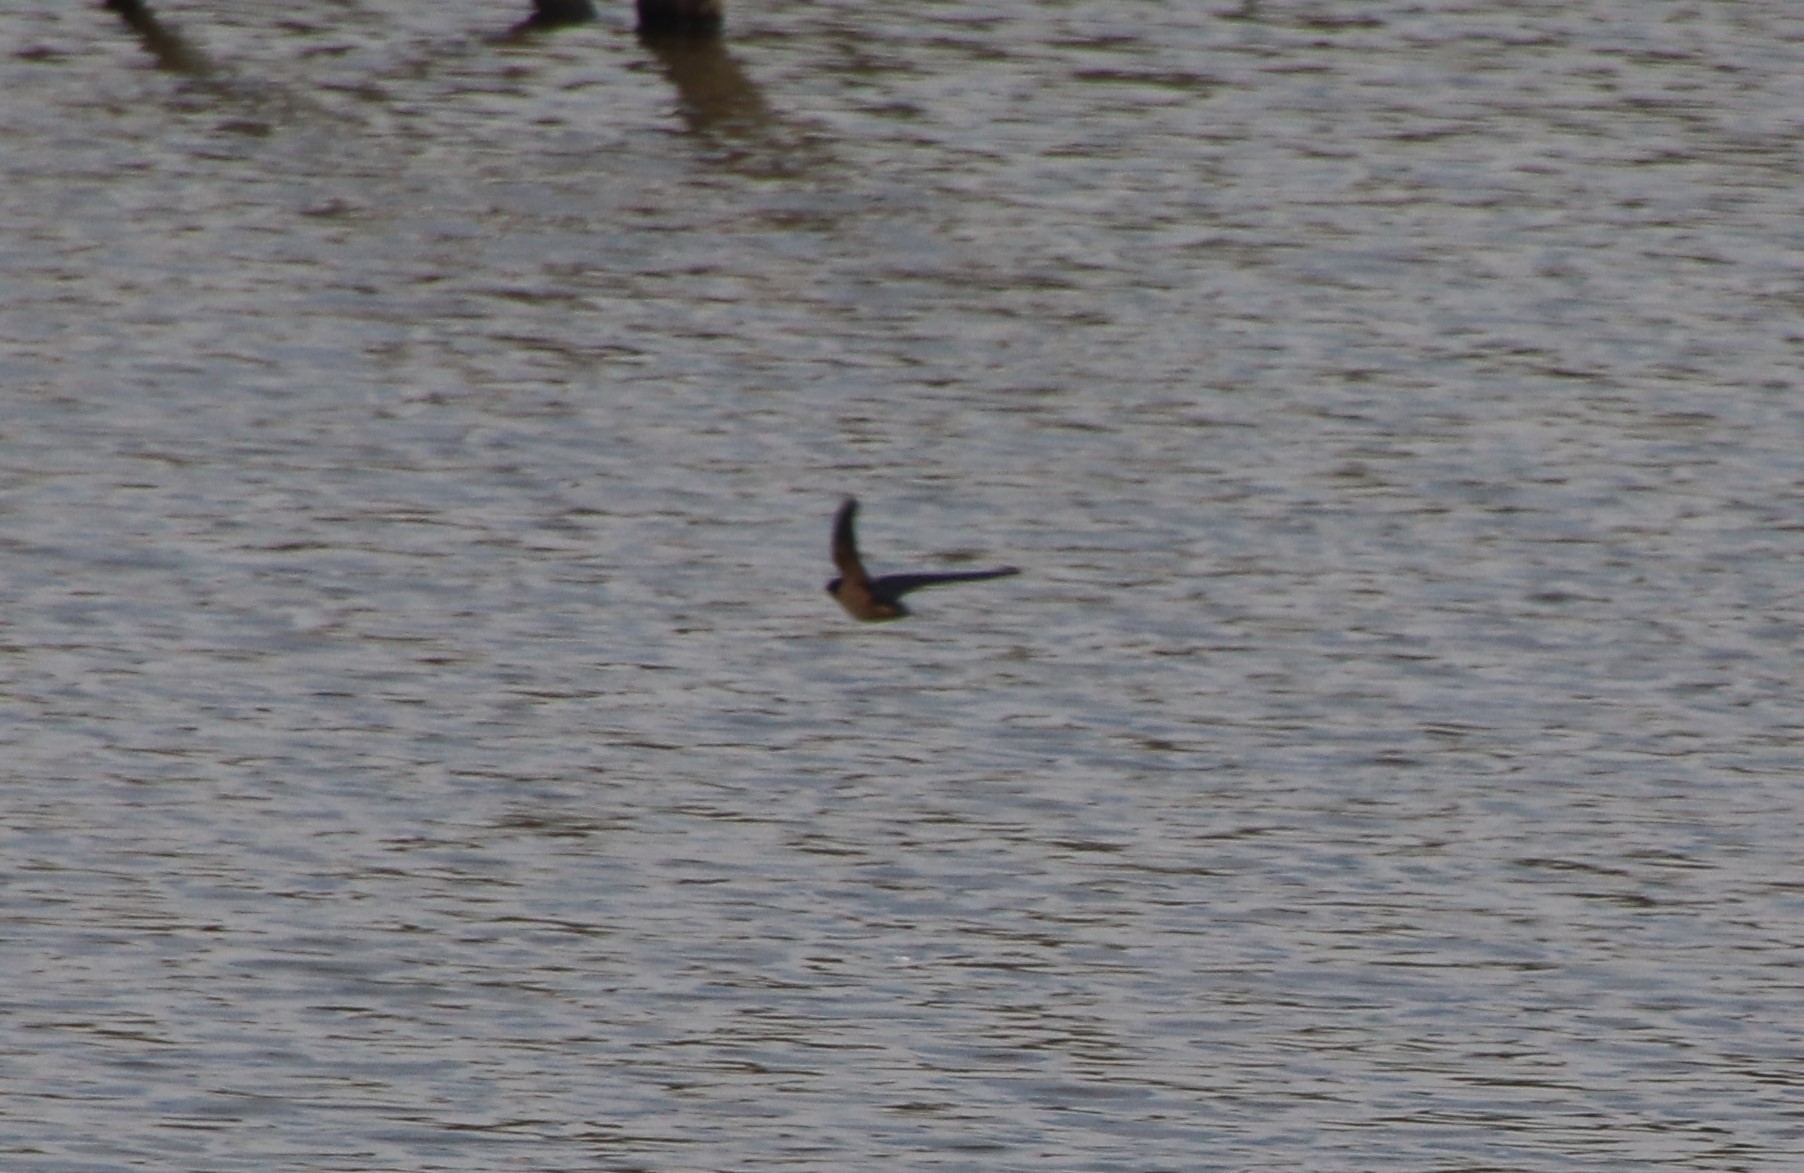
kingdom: Animalia
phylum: Chordata
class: Aves
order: Passeriformes
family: Hirundinidae
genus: Hirundo
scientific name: Hirundo rustica
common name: Barn swallow
